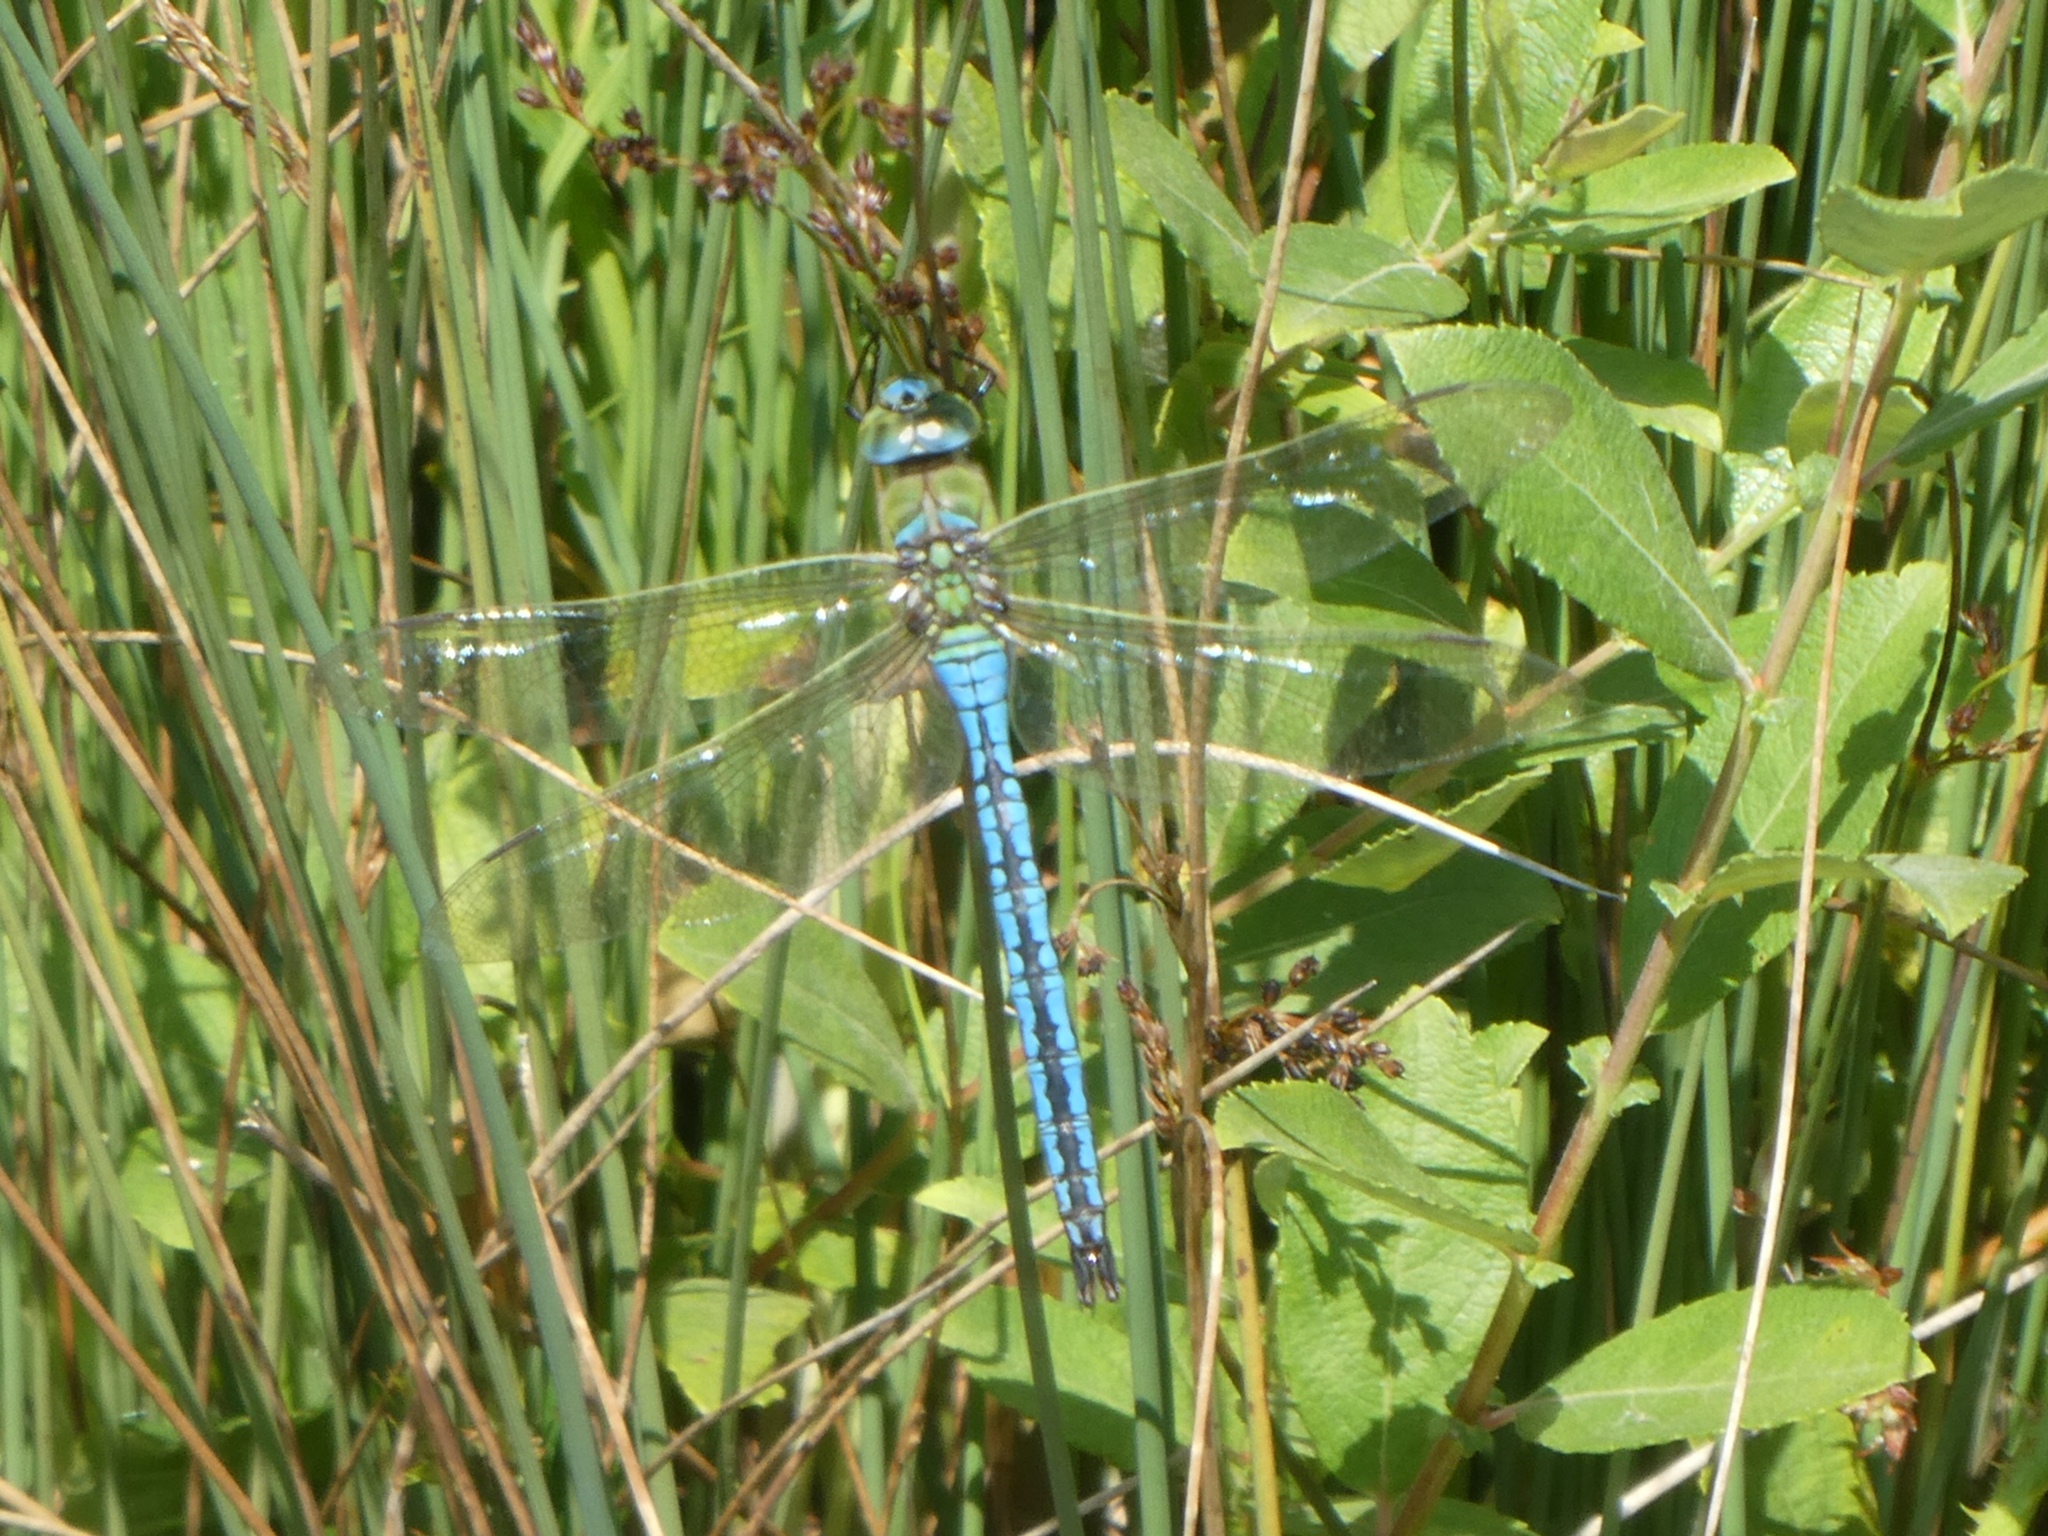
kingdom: Animalia
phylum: Arthropoda
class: Insecta
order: Odonata
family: Aeshnidae
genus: Anax
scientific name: Anax imperator
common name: Emperor dragonfly
